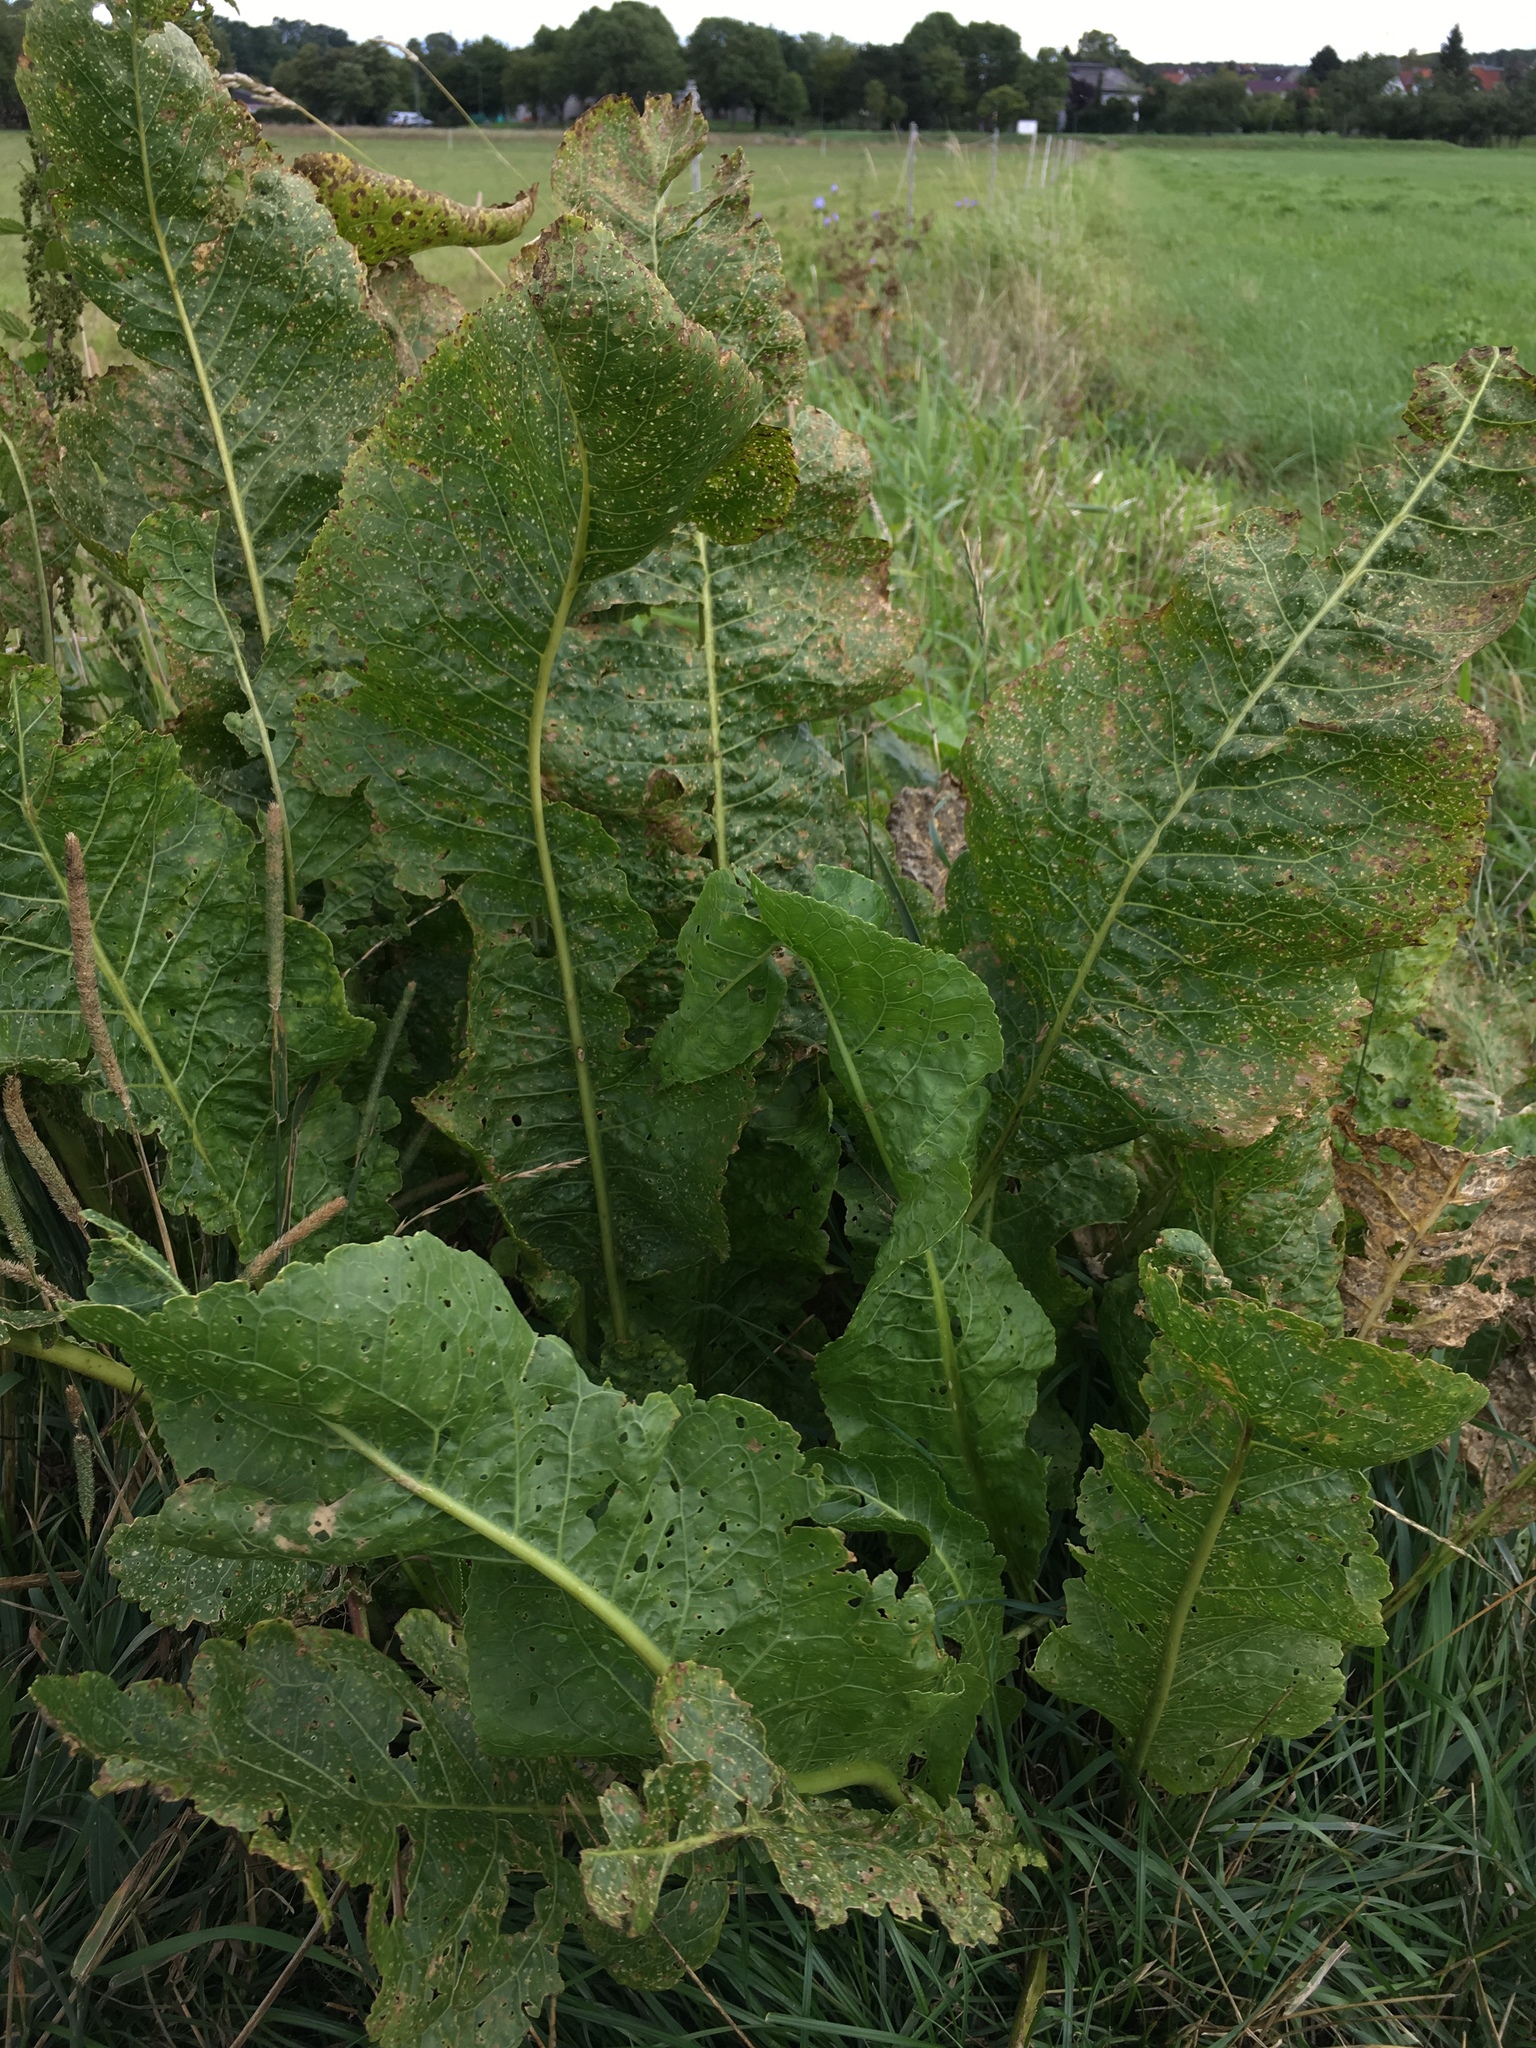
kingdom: Plantae
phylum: Tracheophyta
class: Magnoliopsida
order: Brassicales
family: Brassicaceae
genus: Armoracia
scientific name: Armoracia rusticana
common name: Horseradish
